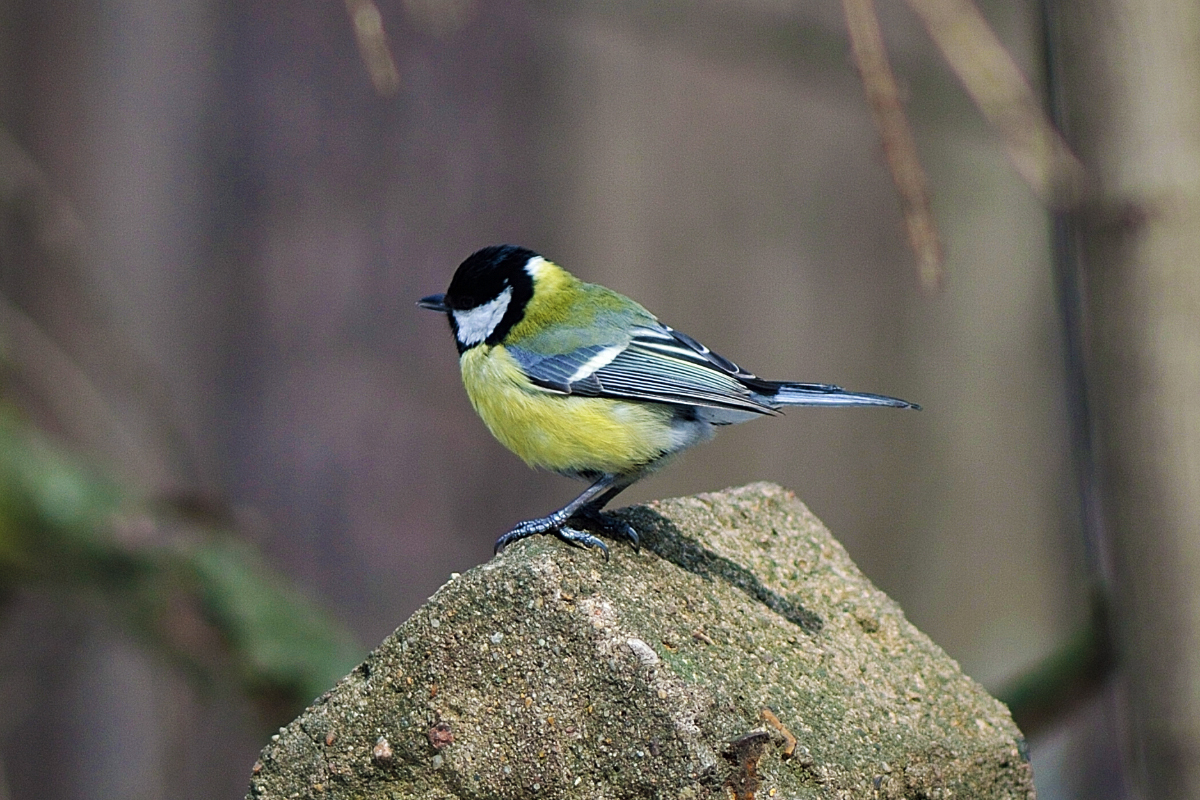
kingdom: Animalia
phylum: Chordata
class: Aves
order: Passeriformes
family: Paridae
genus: Parus
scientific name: Parus major
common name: Great tit
